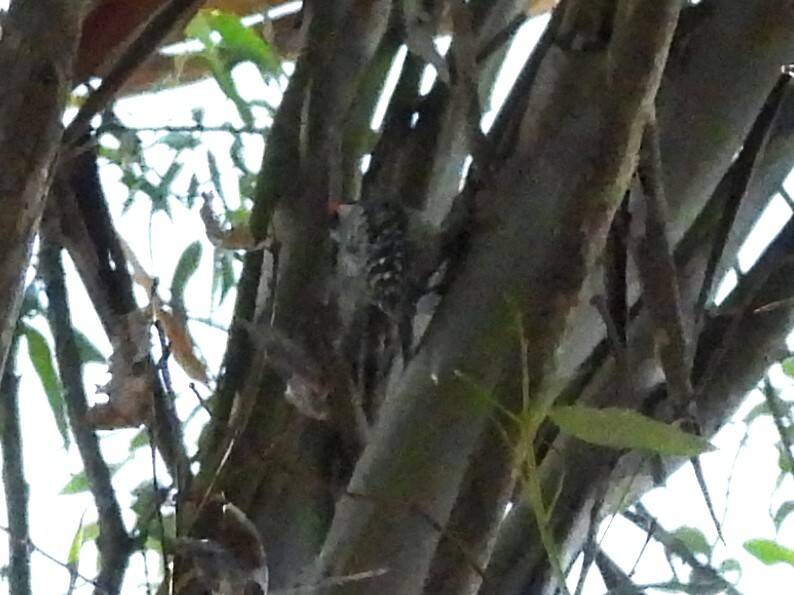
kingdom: Animalia
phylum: Chordata
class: Aves
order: Piciformes
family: Picidae
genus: Dryobates
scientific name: Dryobates nuttallii
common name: Nuttall's woodpecker
